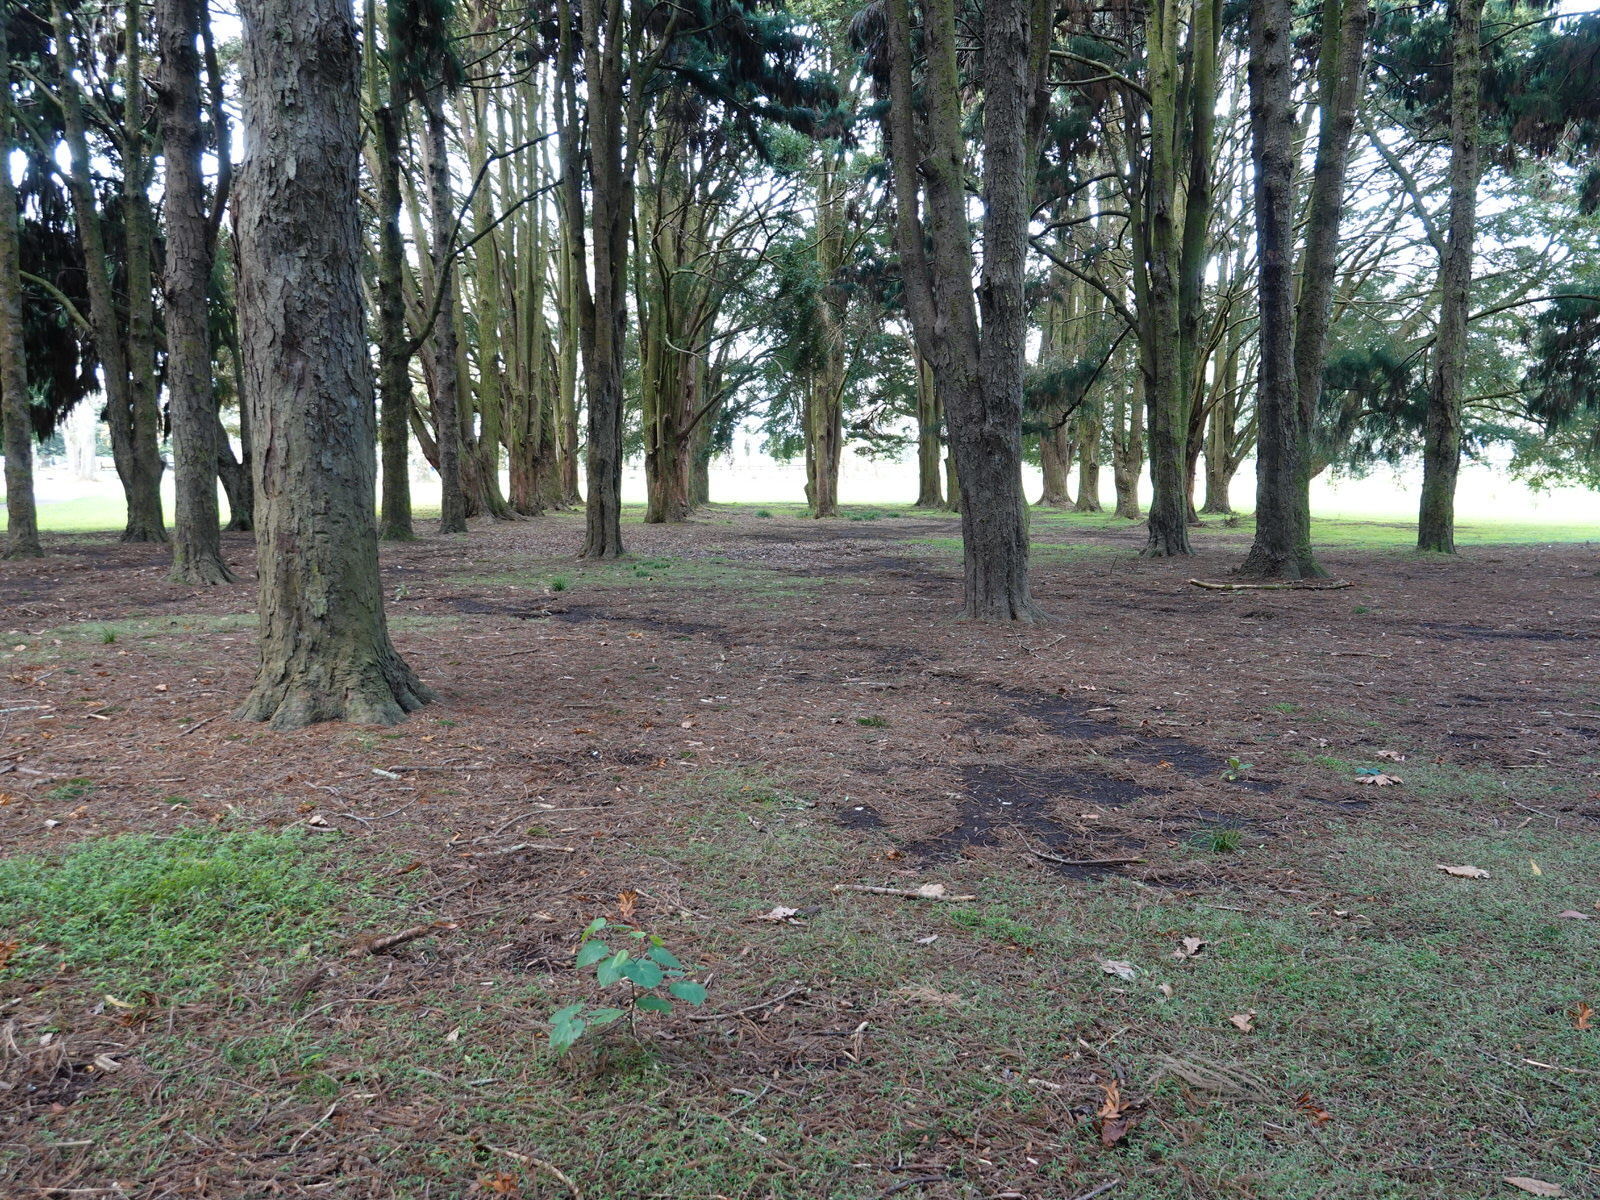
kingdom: Plantae
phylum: Tracheophyta
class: Magnoliopsida
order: Piperales
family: Piperaceae
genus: Macropiper
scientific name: Macropiper excelsum
